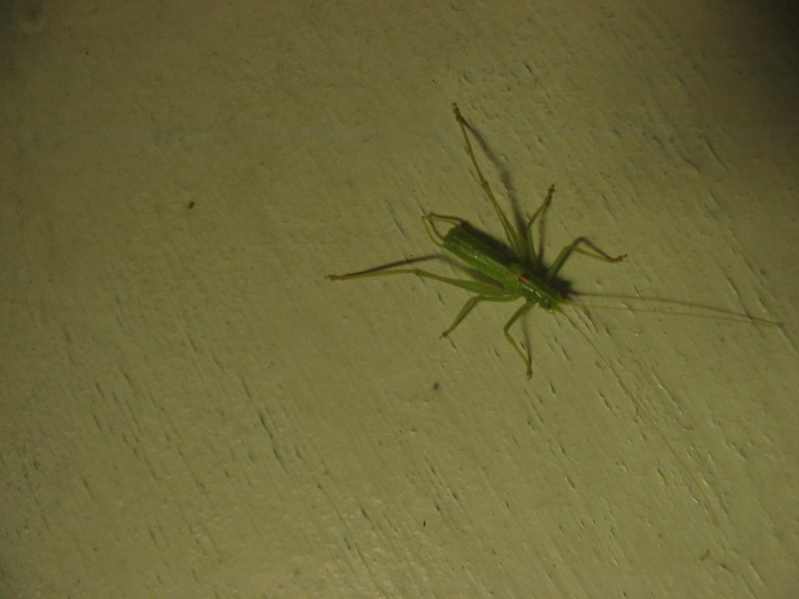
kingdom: Animalia
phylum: Arthropoda
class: Insecta
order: Orthoptera
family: Tettigoniidae
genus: Meconema
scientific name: Meconema meridionale
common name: Southern oak bush-cricket
